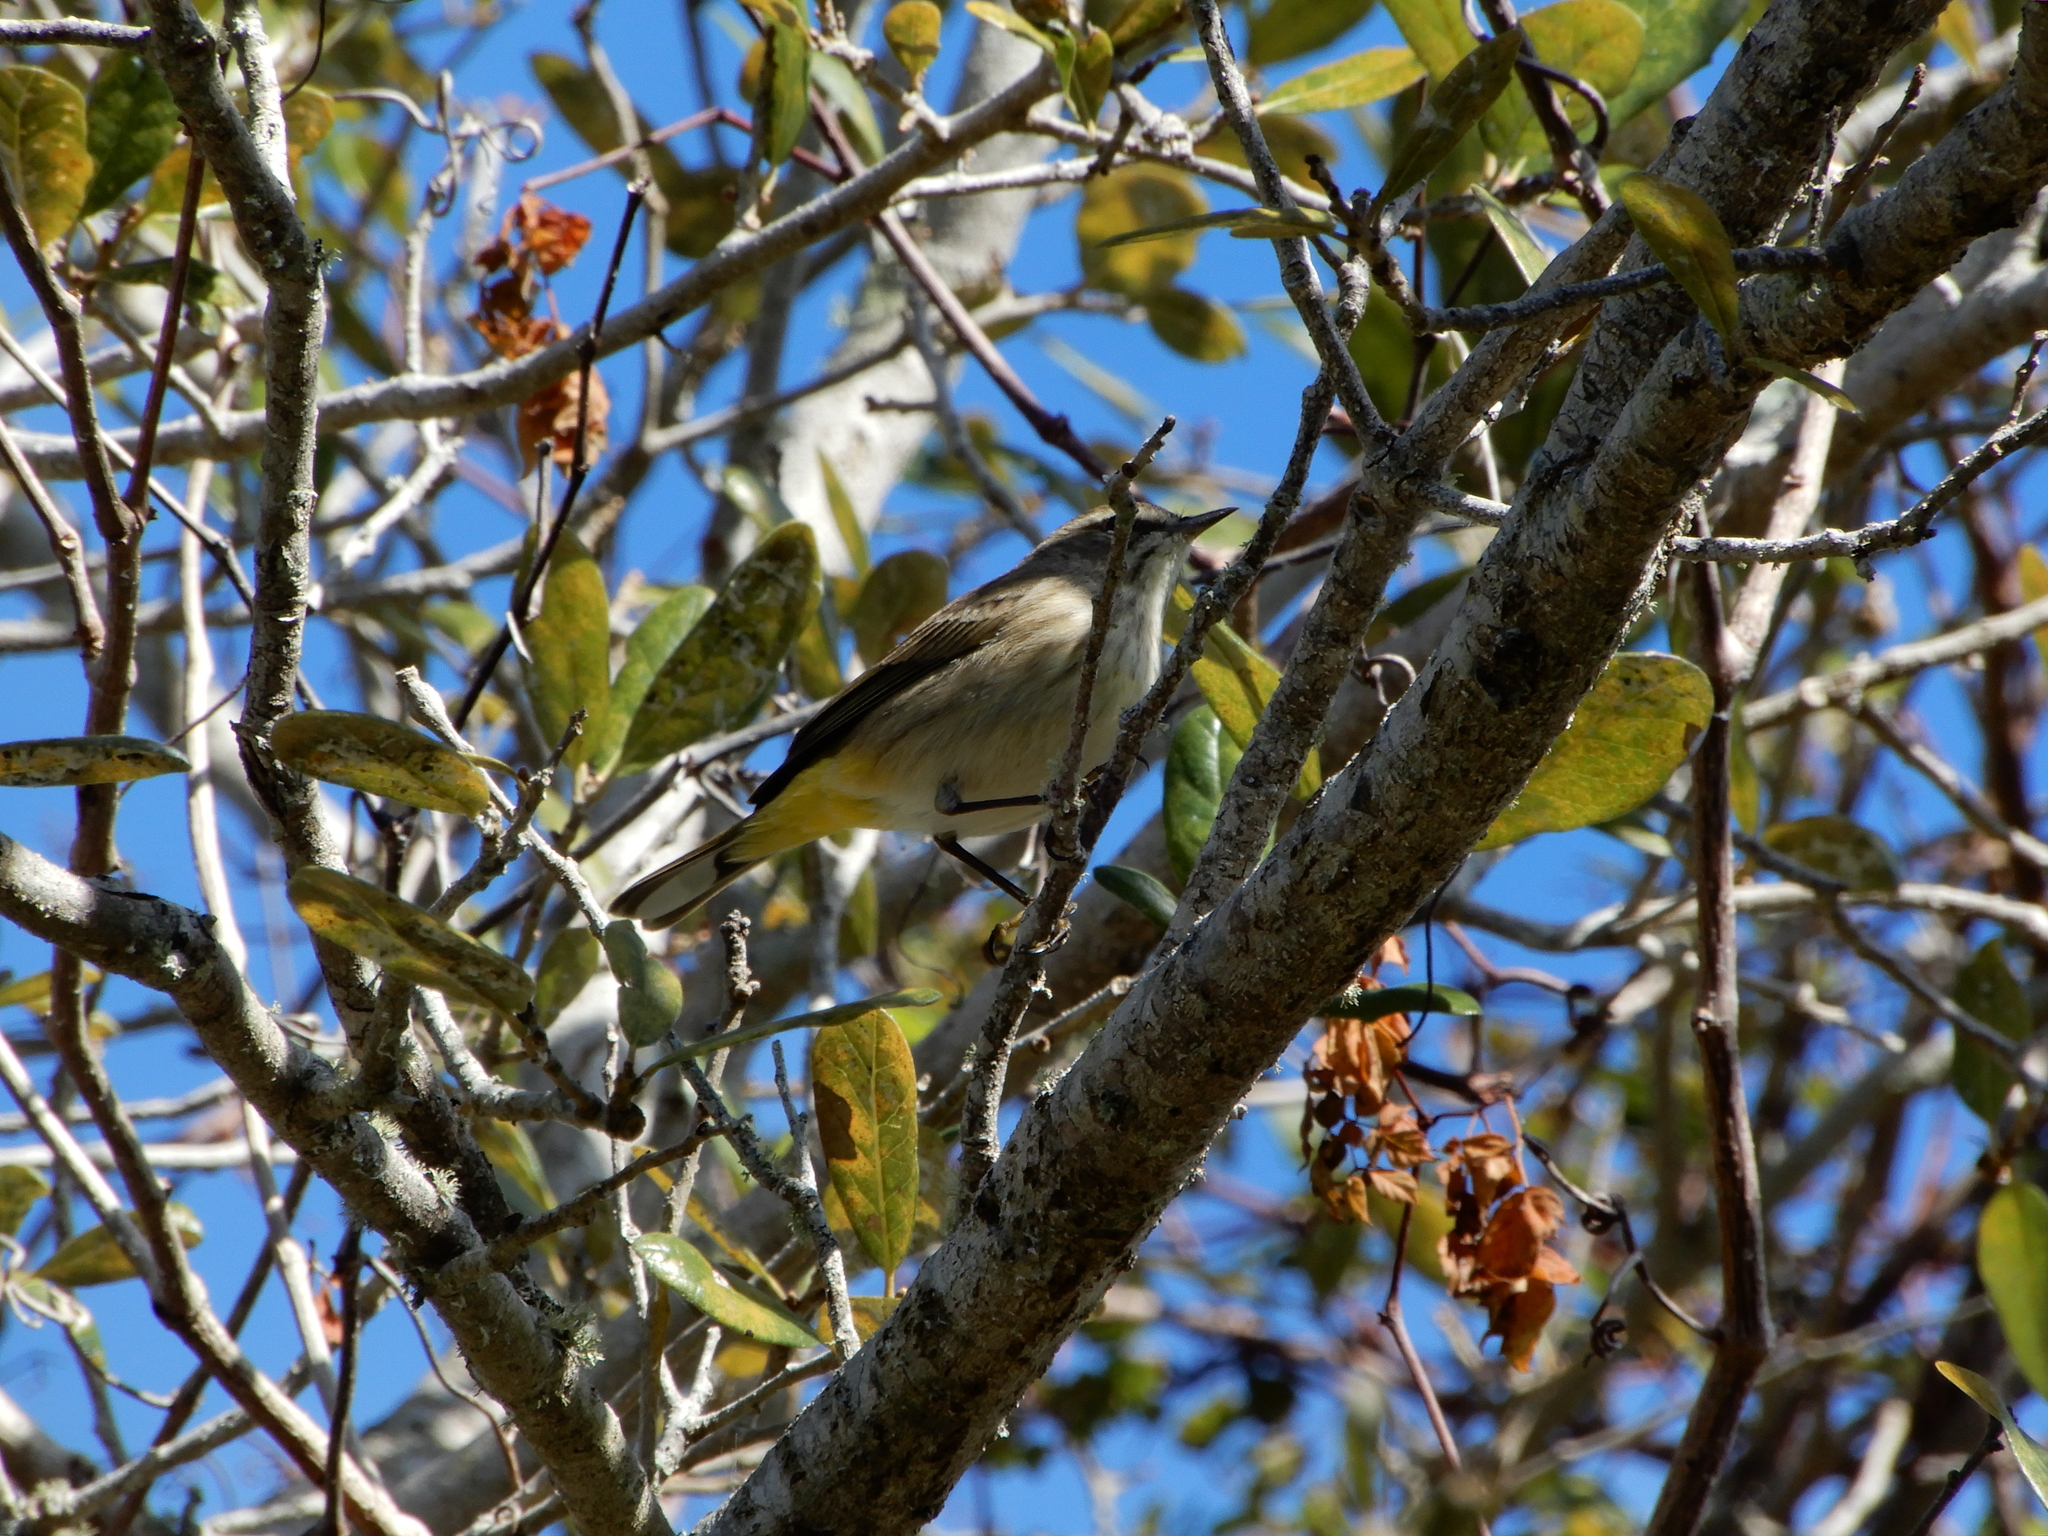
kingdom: Animalia
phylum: Chordata
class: Aves
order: Passeriformes
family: Parulidae
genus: Setophaga
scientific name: Setophaga palmarum
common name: Palm warbler
